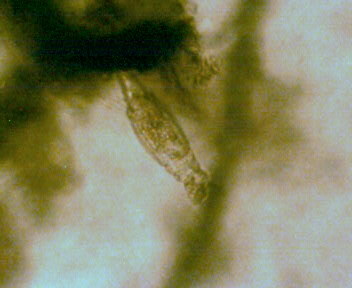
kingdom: Animalia
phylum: Rotifera
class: Eurotatoria
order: Bdelloidea
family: Habrotrochidae
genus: Habrotrocha
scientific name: Habrotrocha constricta
